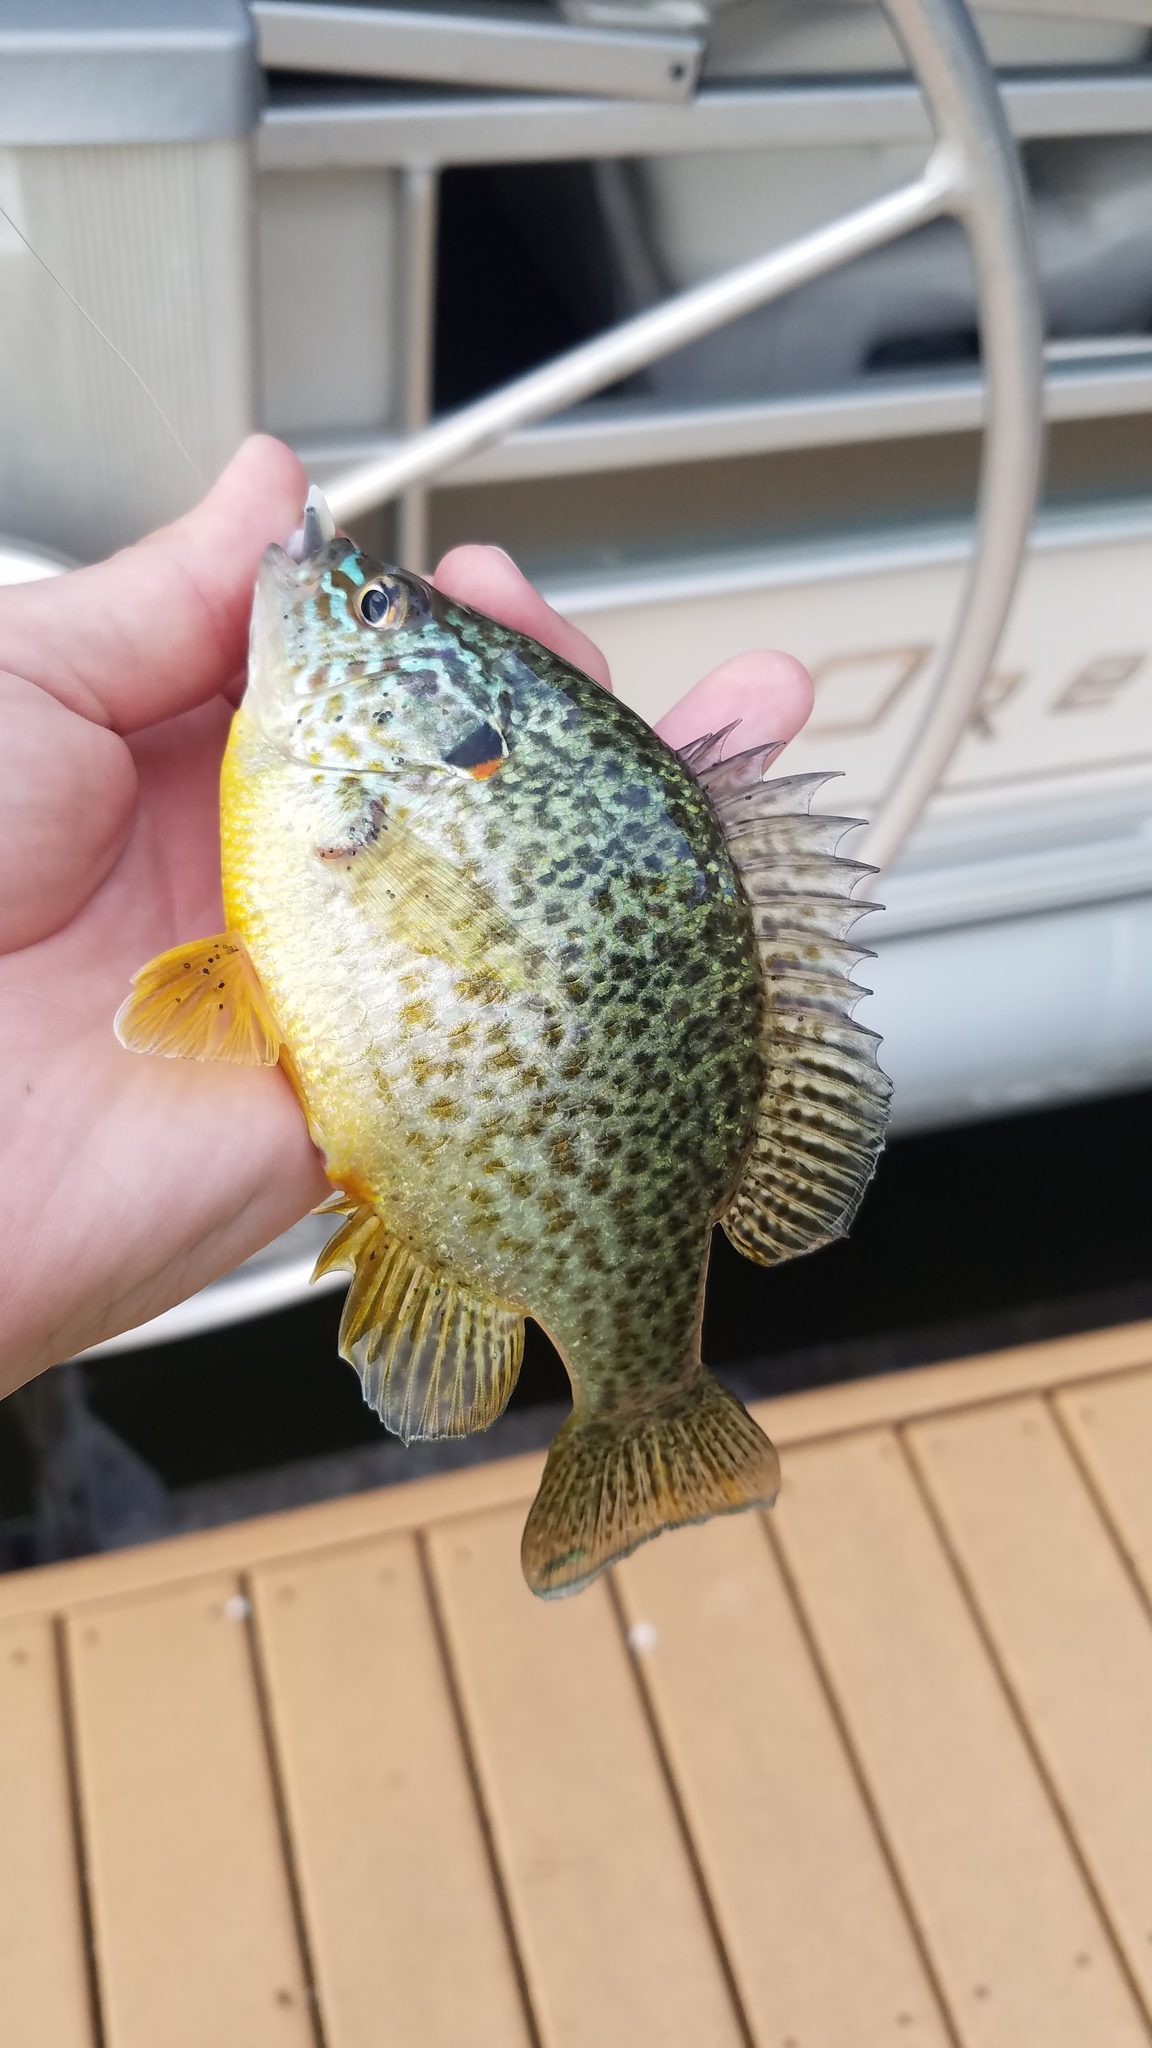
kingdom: Animalia
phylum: Chordata
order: Perciformes
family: Centrarchidae
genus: Lepomis
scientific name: Lepomis gibbosus
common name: Pumpkinseed
